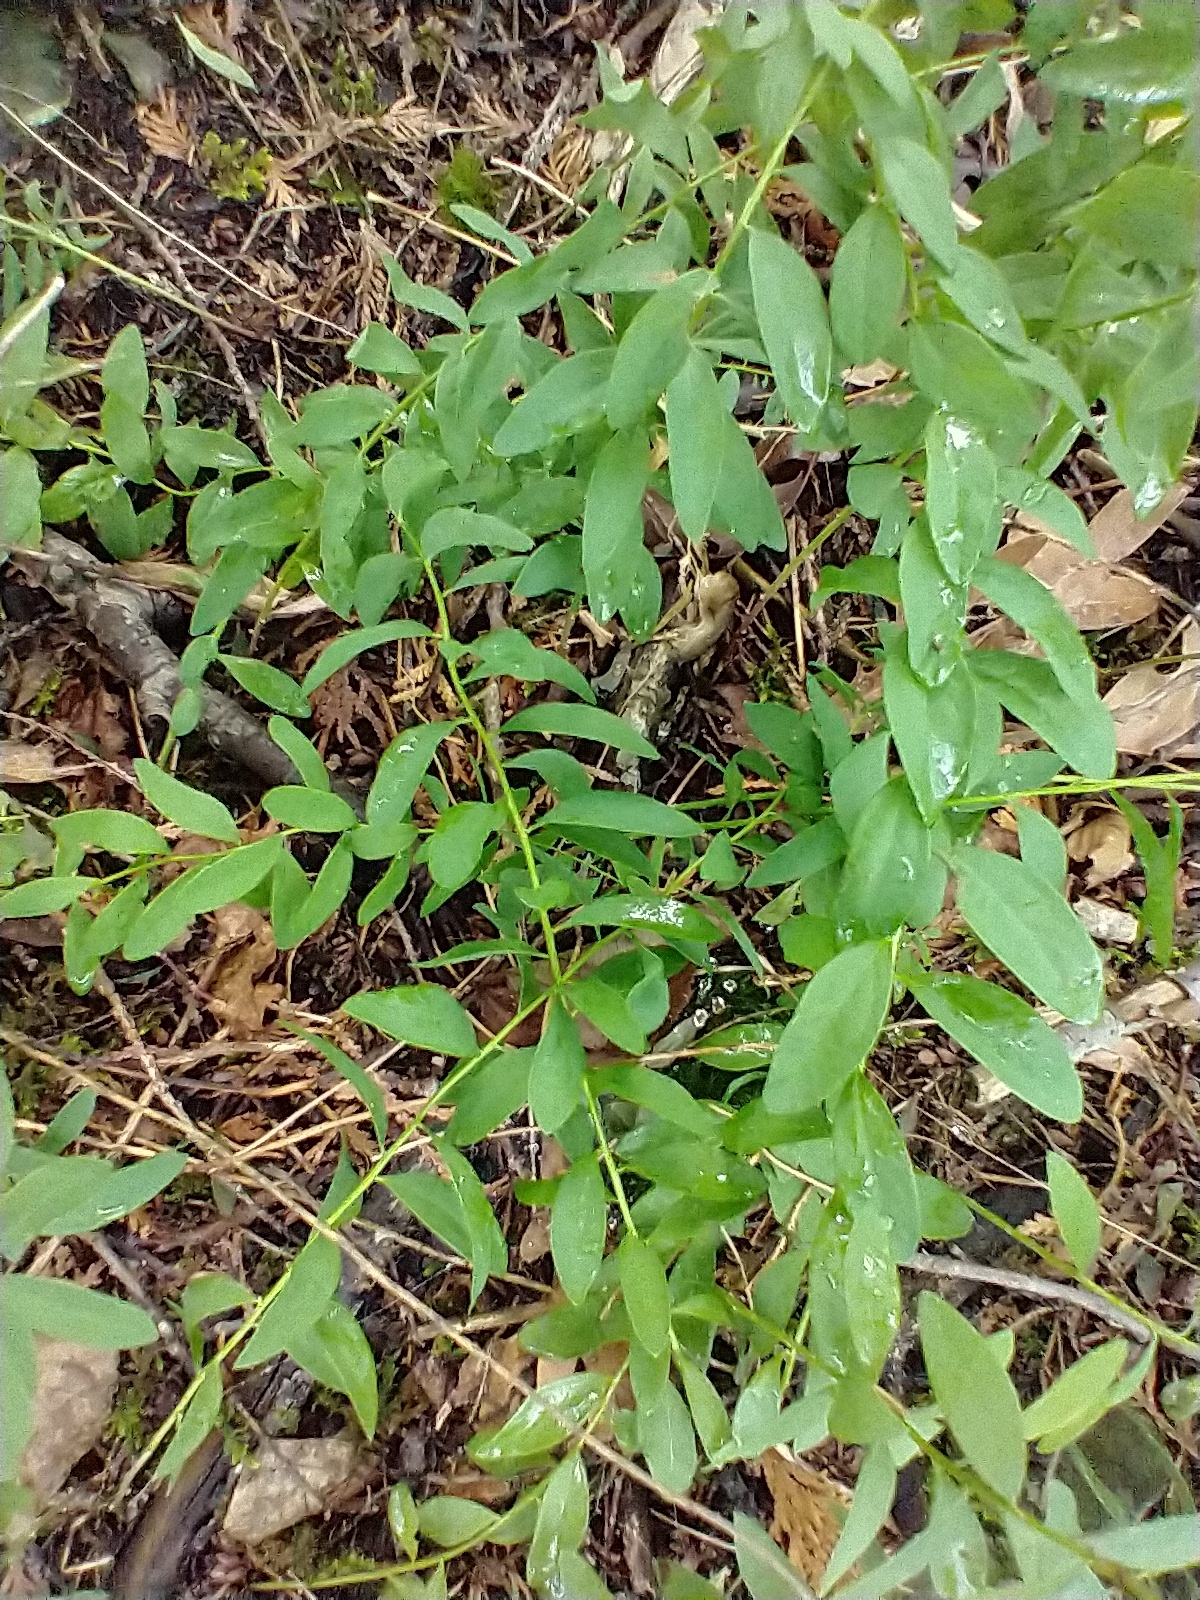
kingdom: Plantae
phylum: Tracheophyta
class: Magnoliopsida
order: Santalales
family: Comandraceae
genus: Comandra
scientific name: Comandra umbellata
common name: Bastard toadflax
